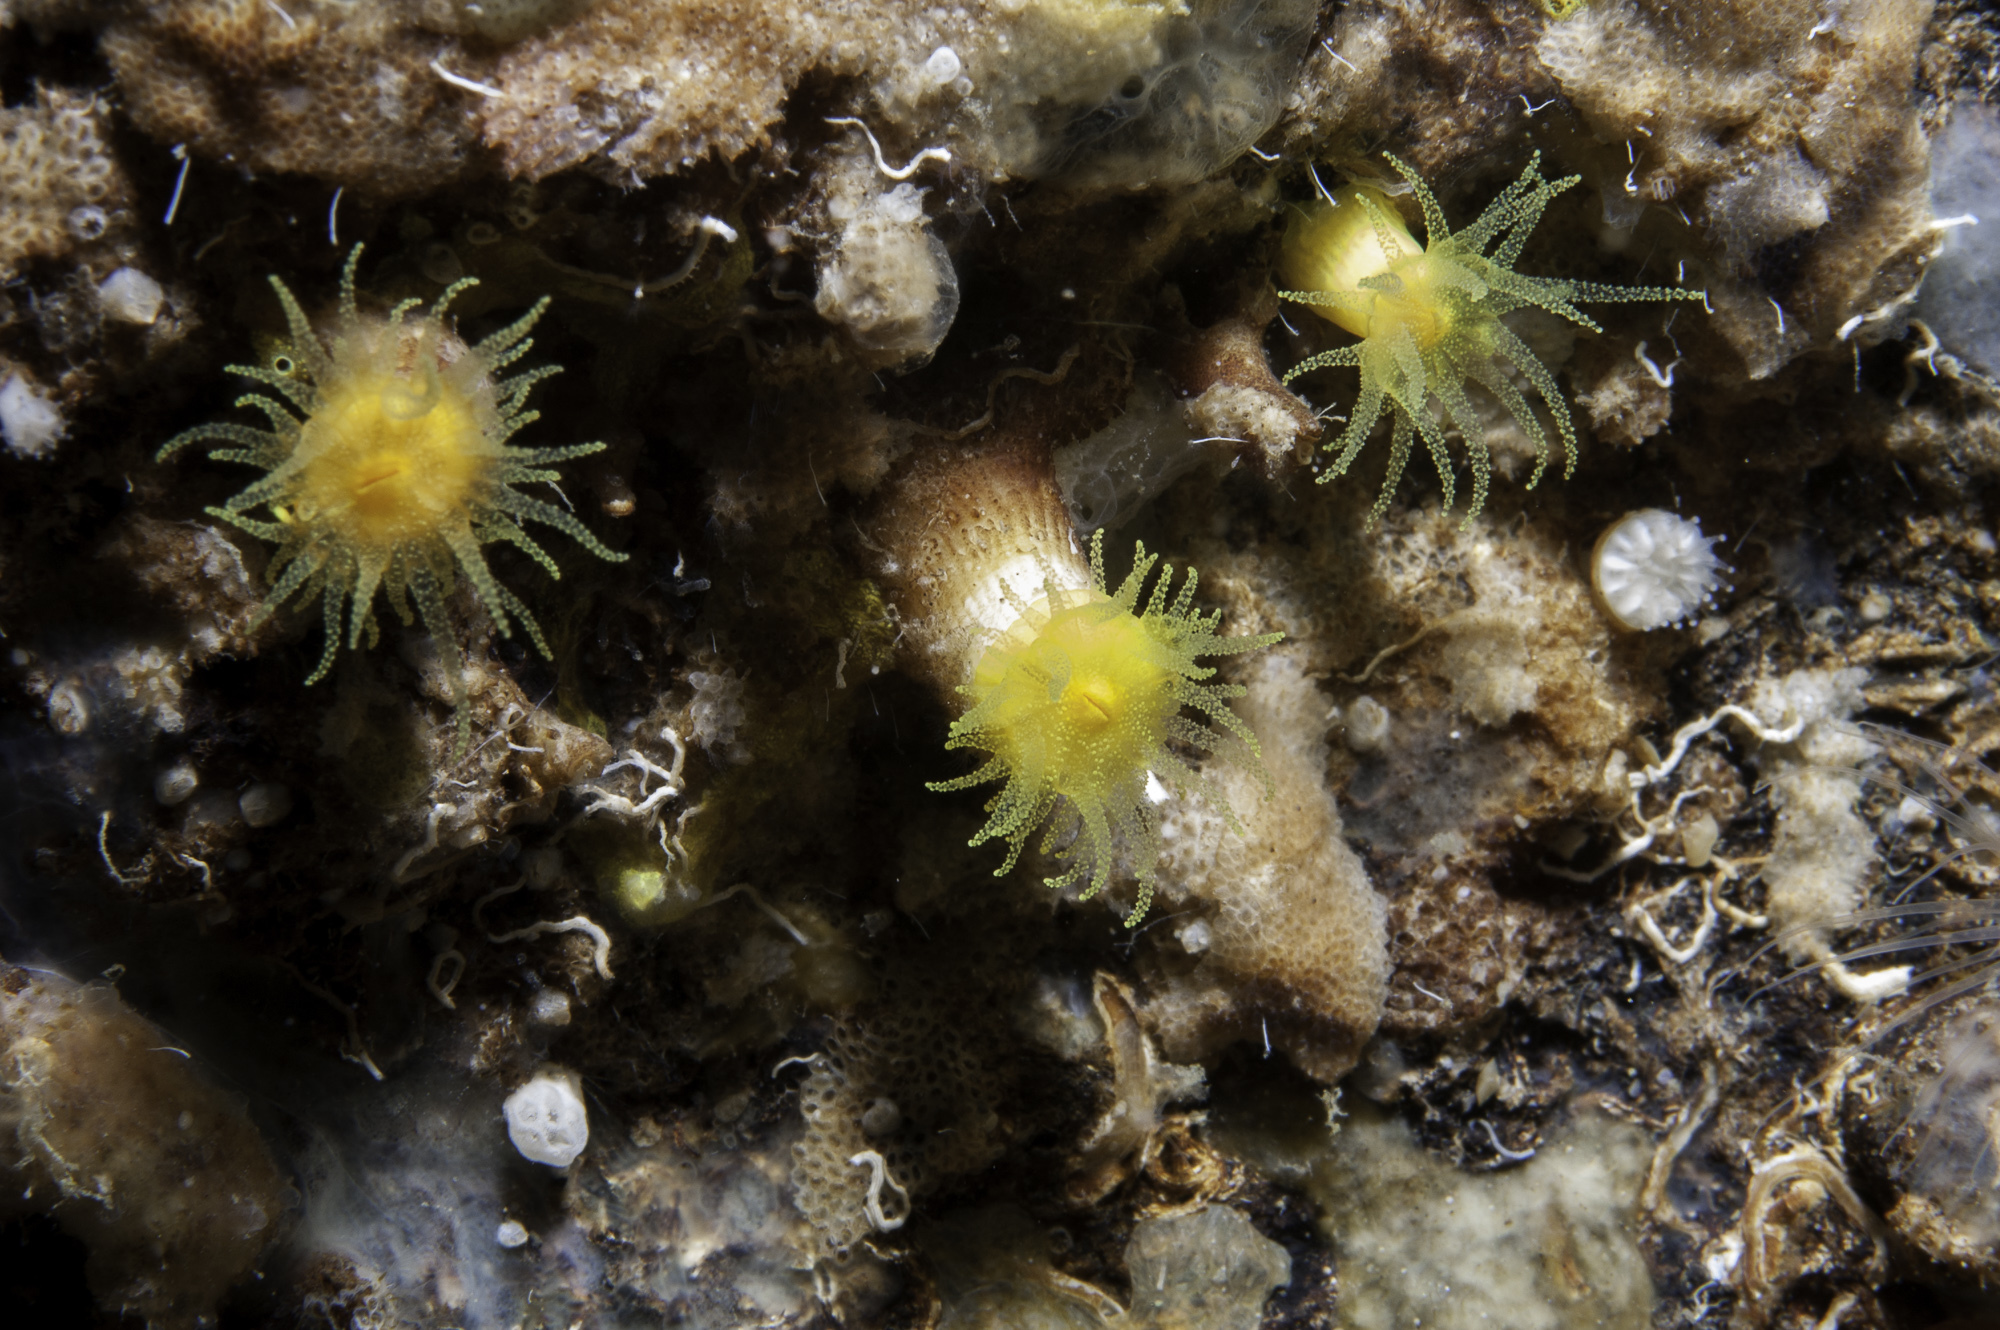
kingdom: Animalia
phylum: Cnidaria
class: Anthozoa
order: Scleractinia
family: Dendrophylliidae
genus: Leptopsammia
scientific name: Leptopsammia pruvoti
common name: Sunset cup coral
